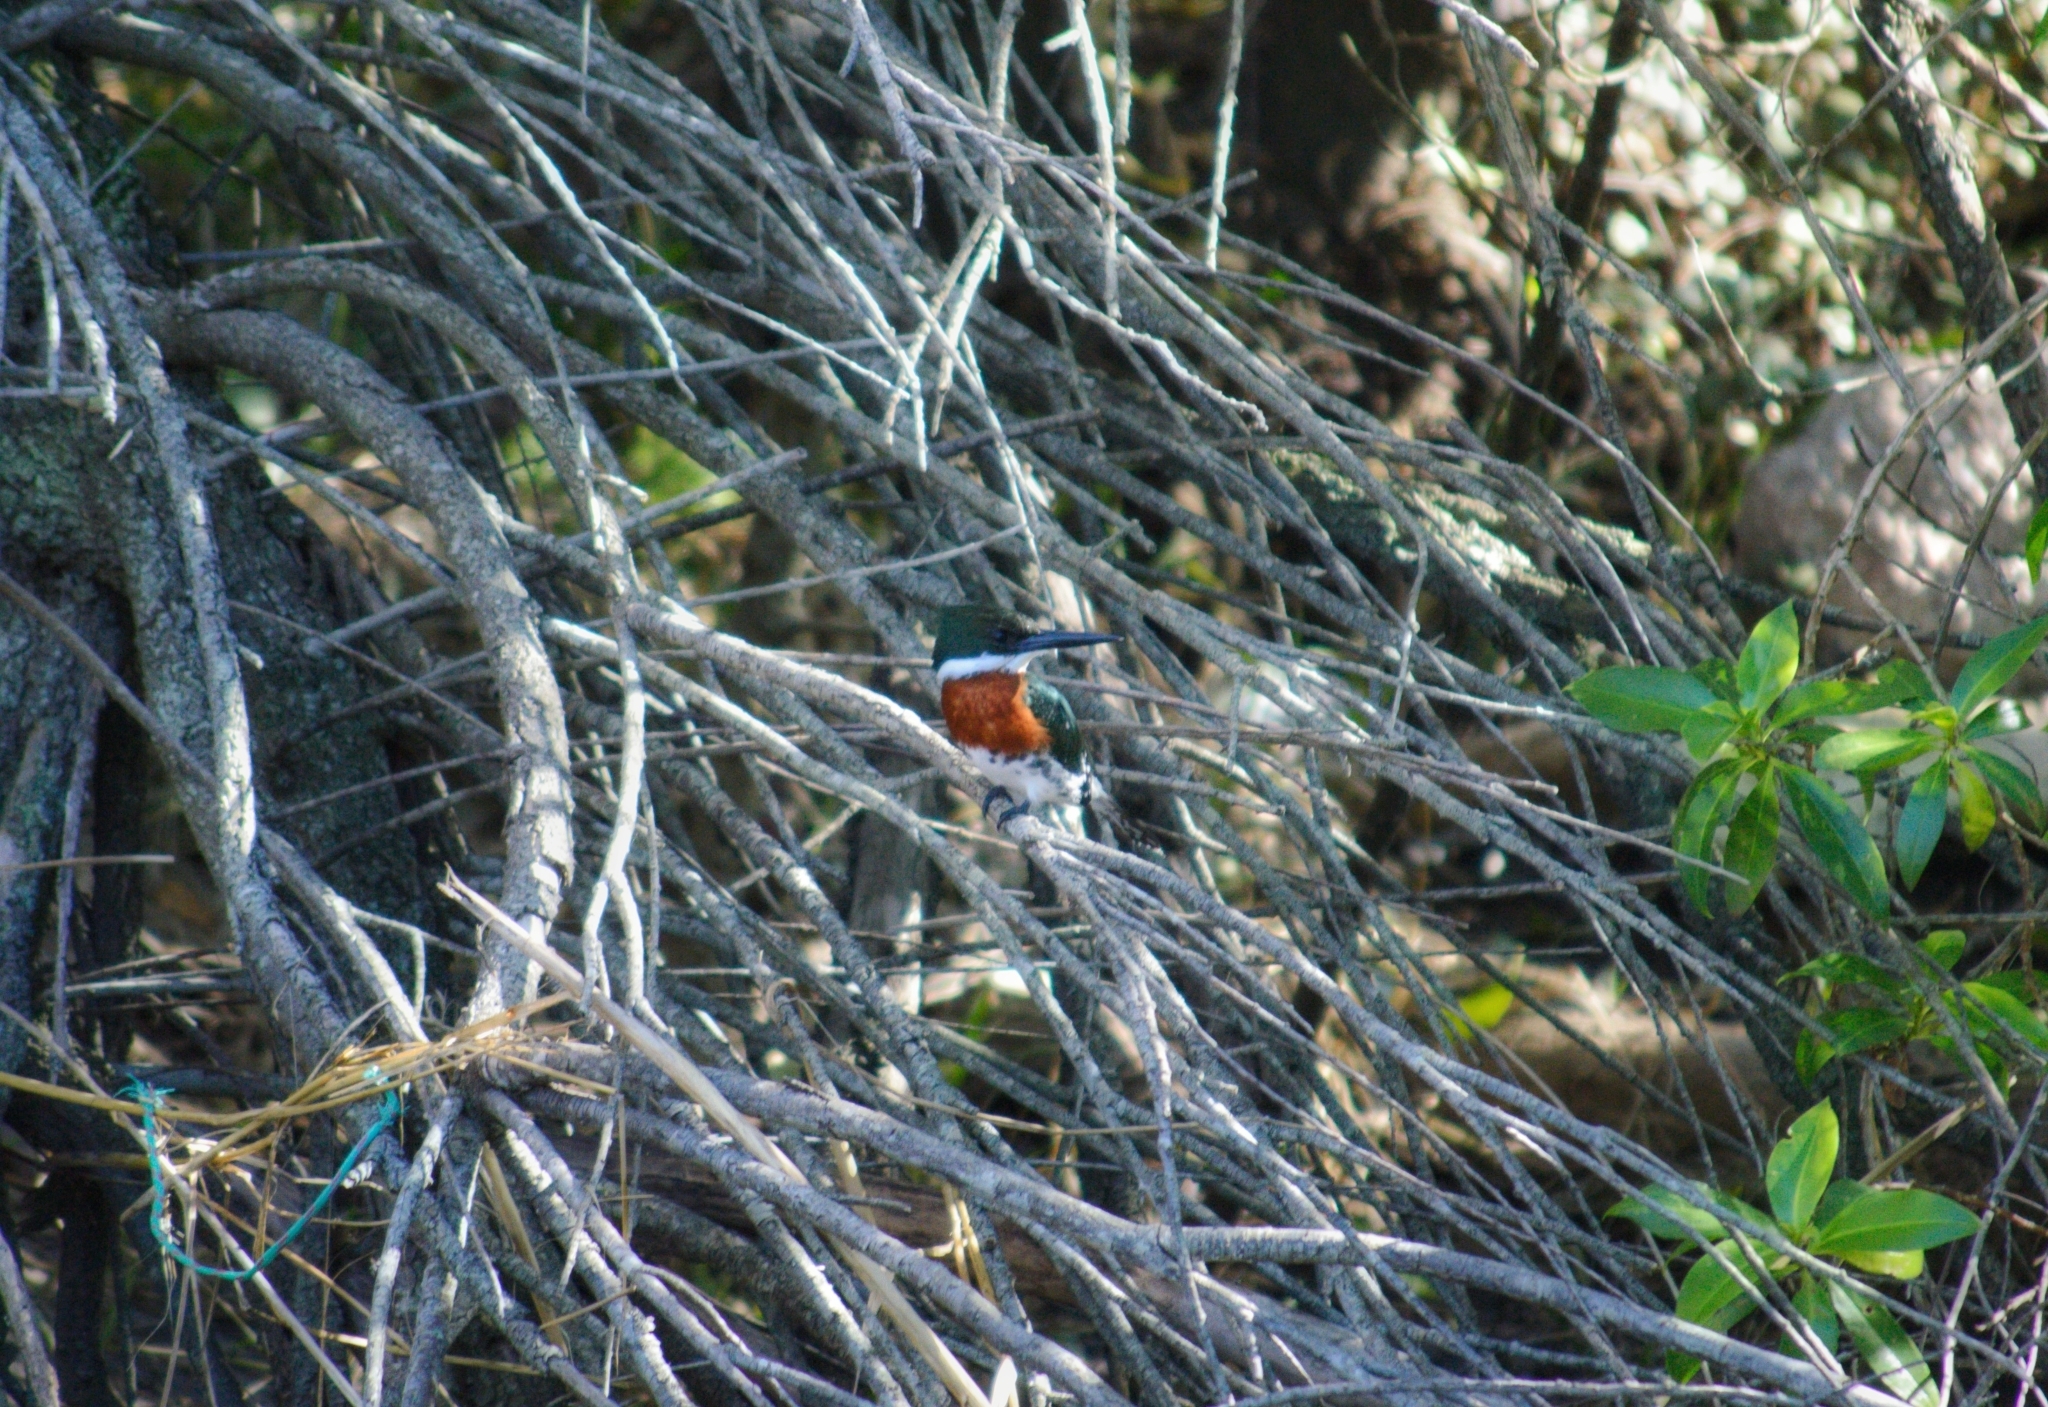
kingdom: Animalia
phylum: Chordata
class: Aves
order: Coraciiformes
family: Alcedinidae
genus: Chloroceryle
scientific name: Chloroceryle americana
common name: Green kingfisher
